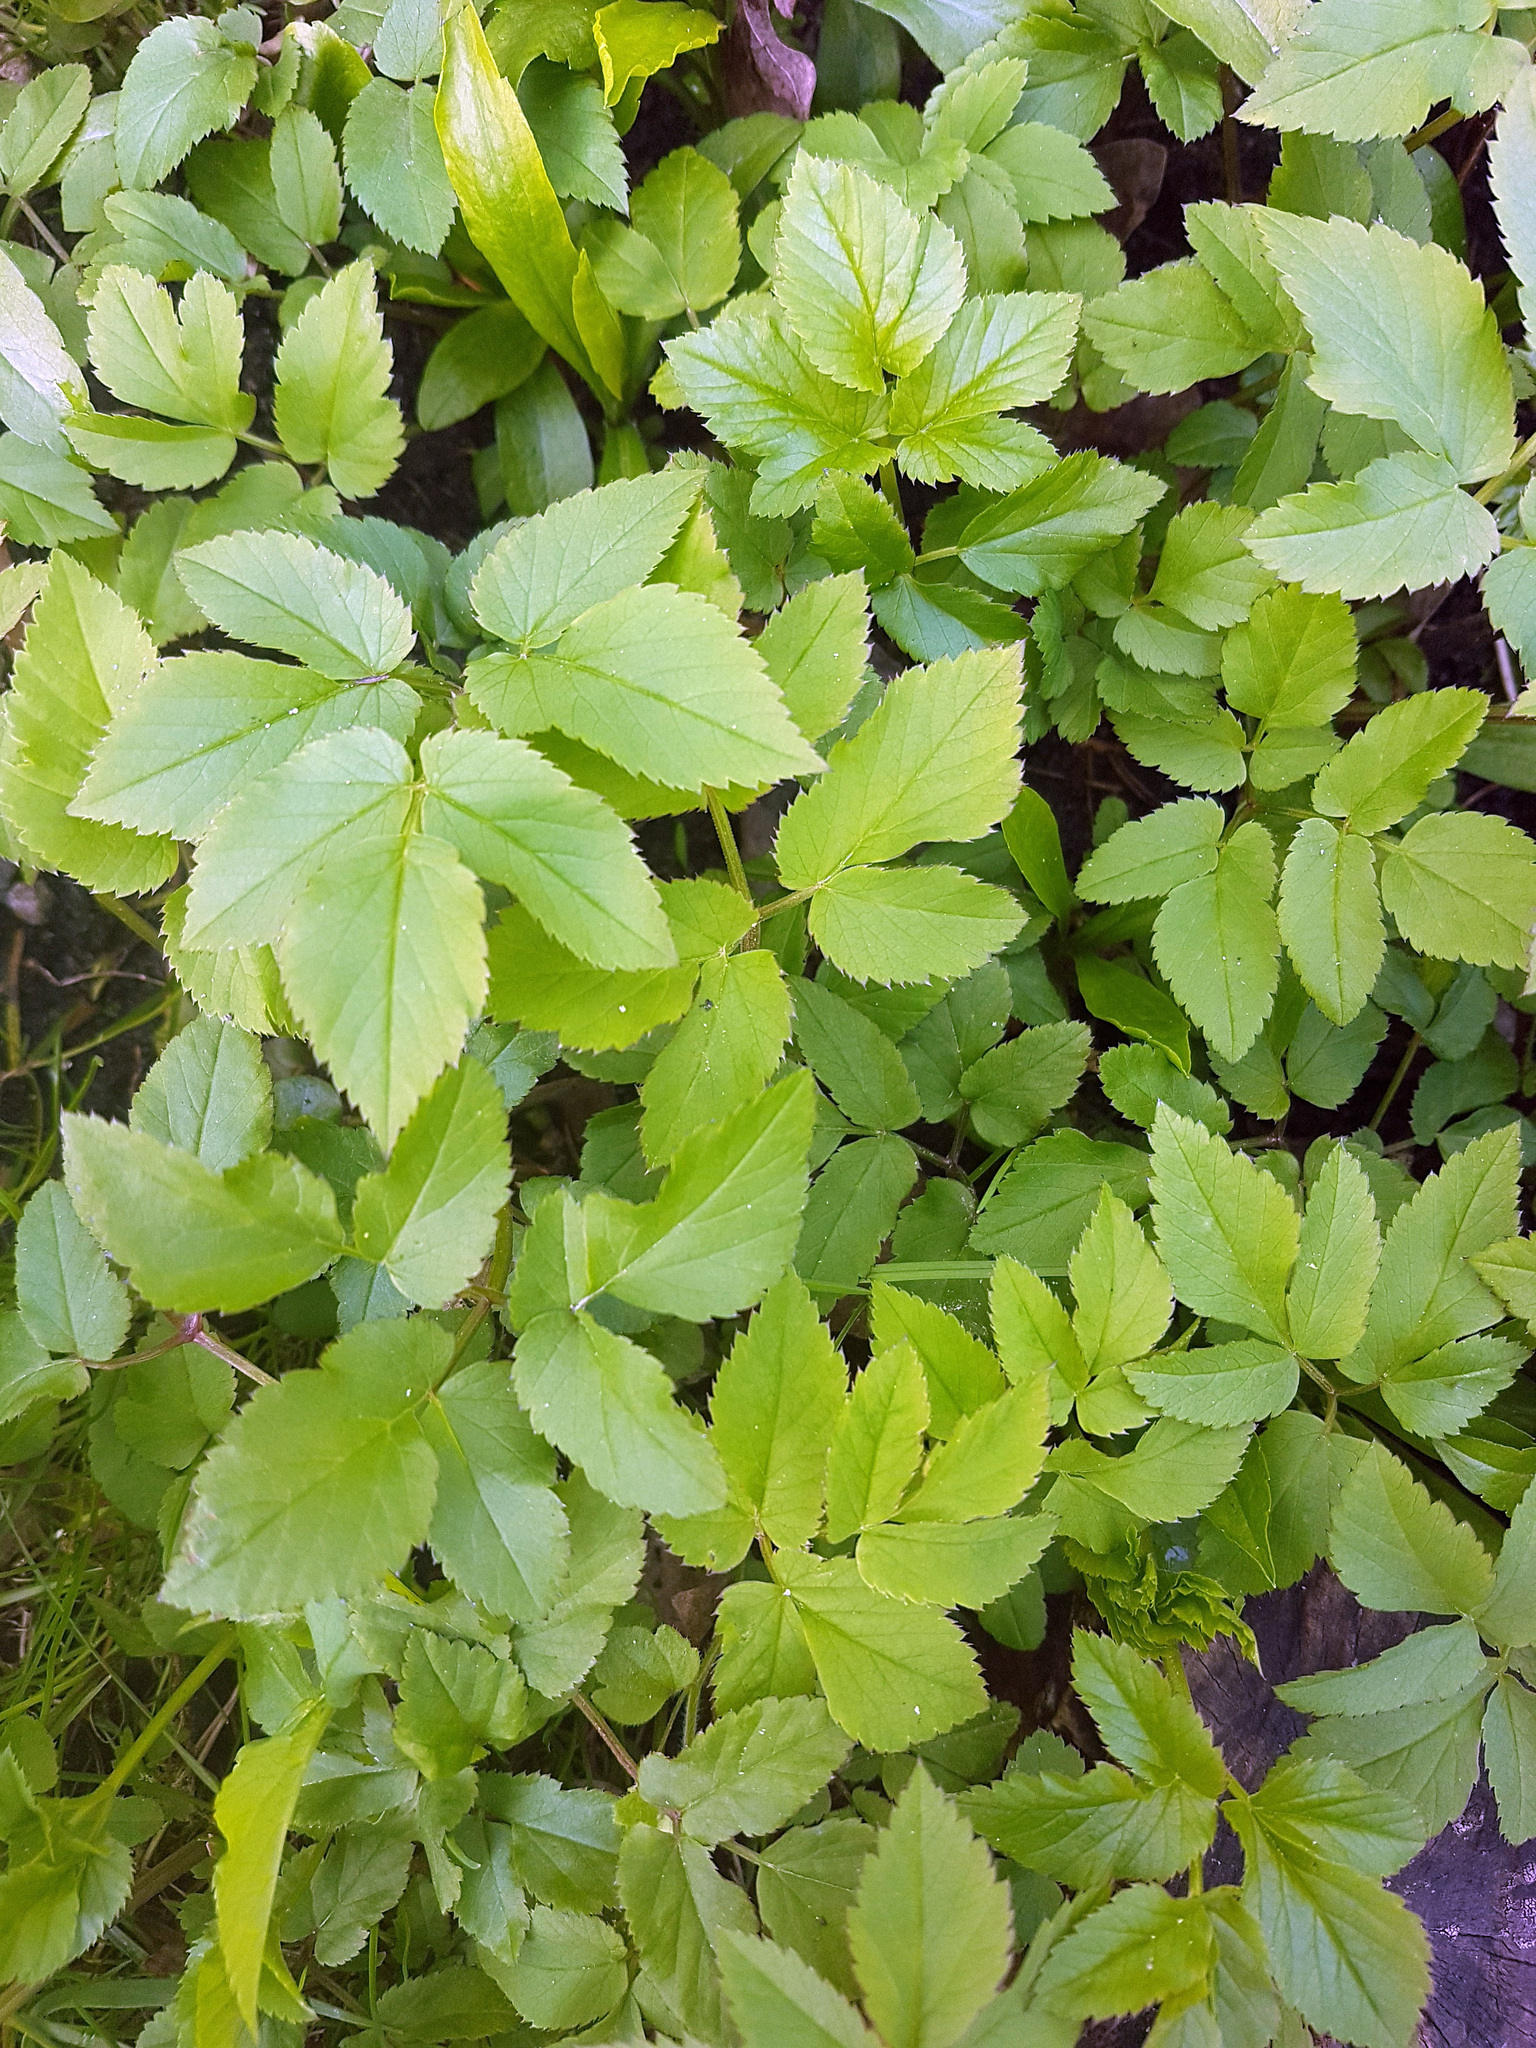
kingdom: Plantae
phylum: Tracheophyta
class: Magnoliopsida
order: Apiales
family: Apiaceae
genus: Aegopodium
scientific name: Aegopodium podagraria
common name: Ground-elder
